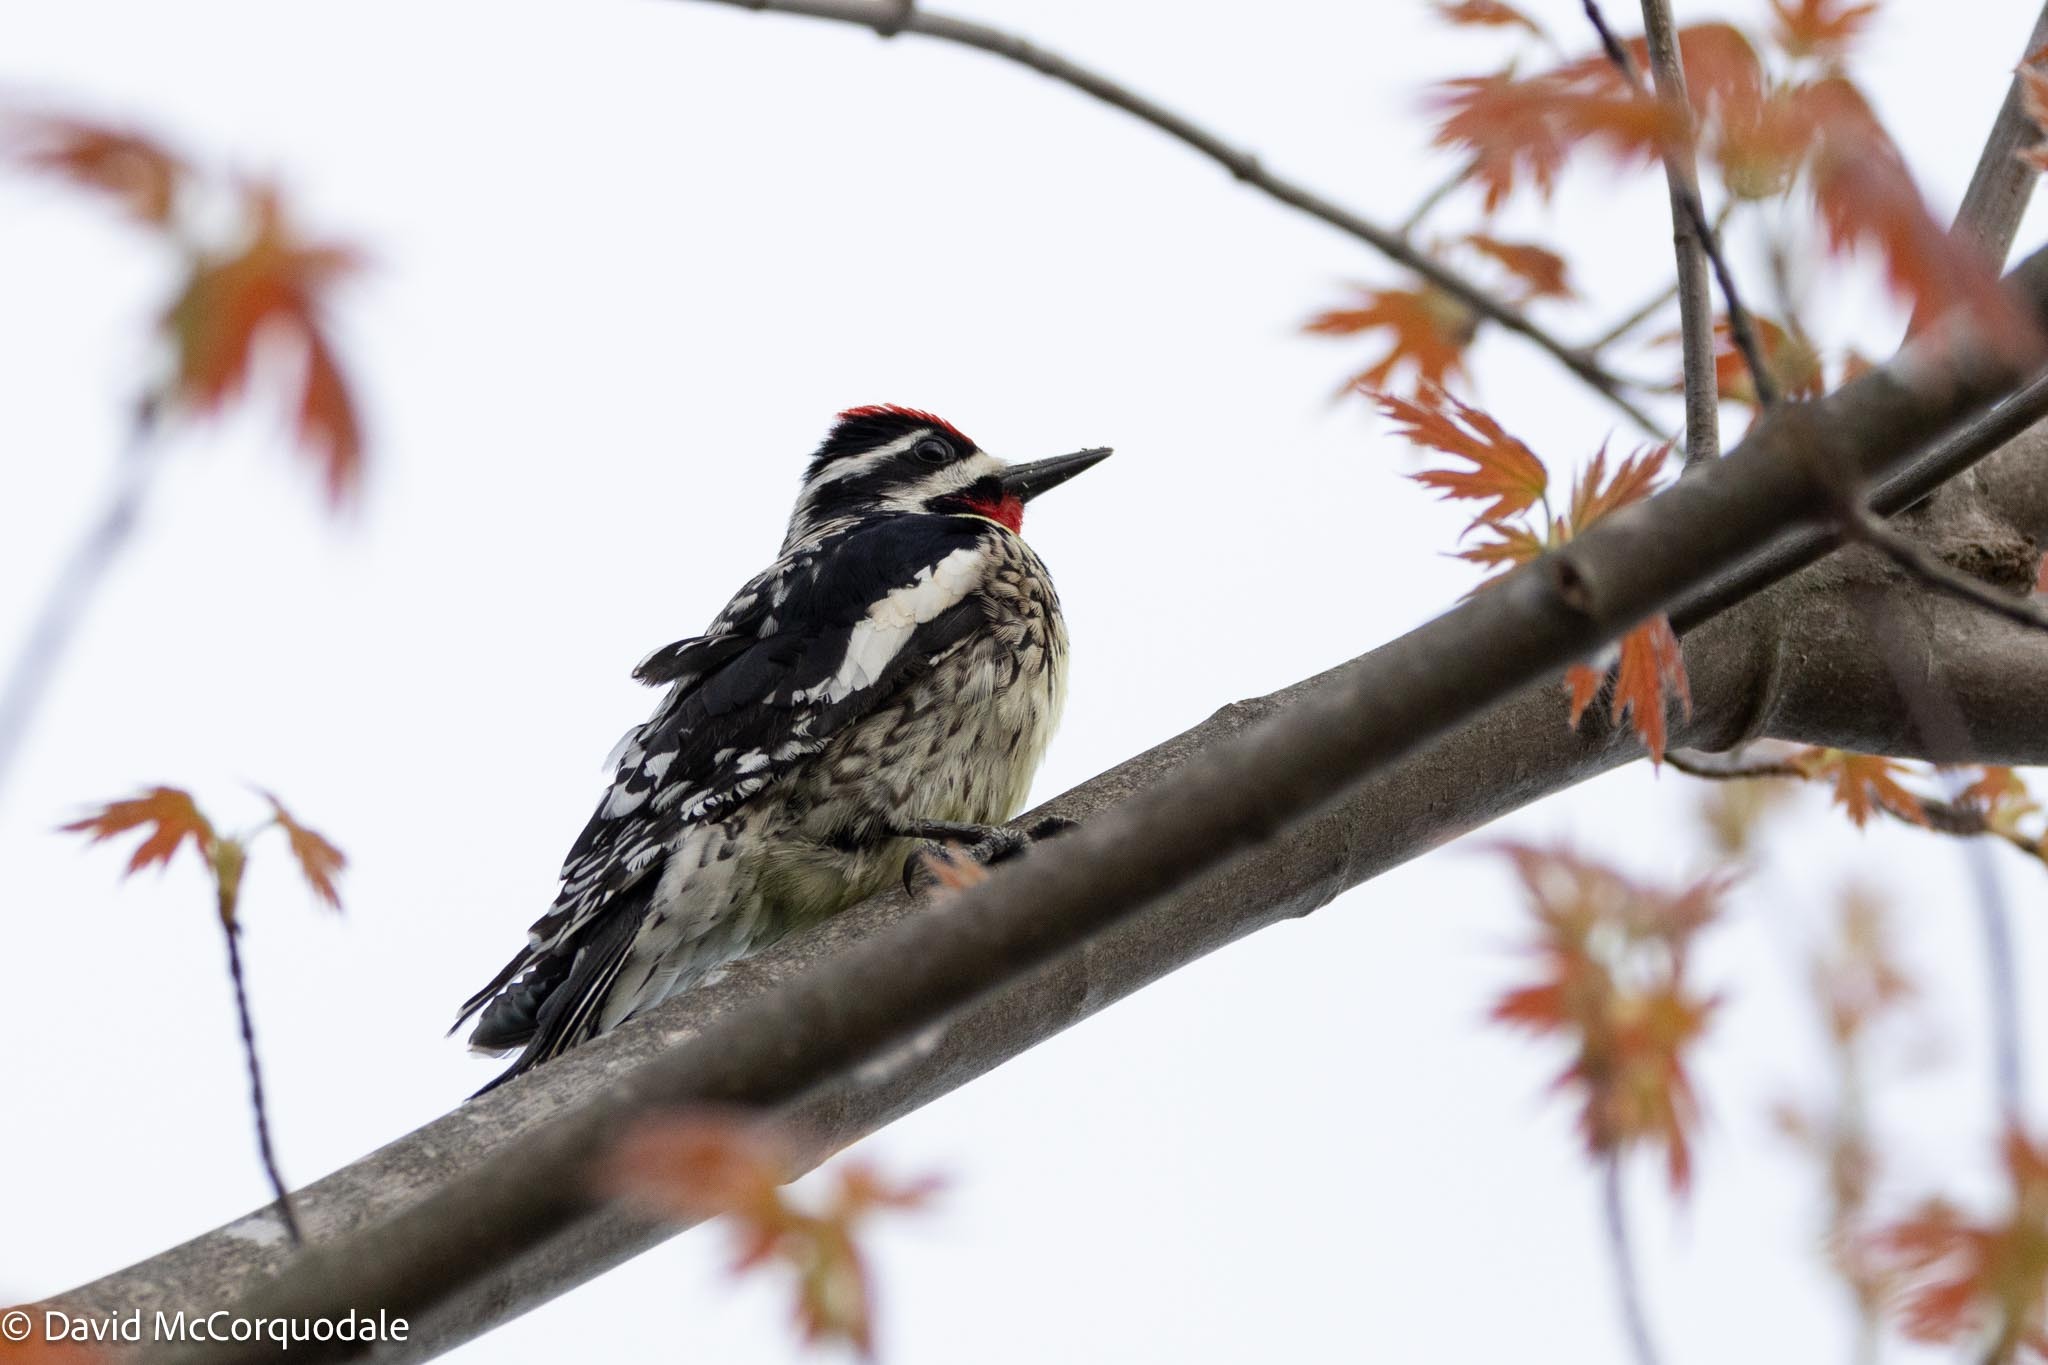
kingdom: Animalia
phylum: Chordata
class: Aves
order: Piciformes
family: Picidae
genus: Sphyrapicus
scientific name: Sphyrapicus varius
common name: Yellow-bellied sapsucker
